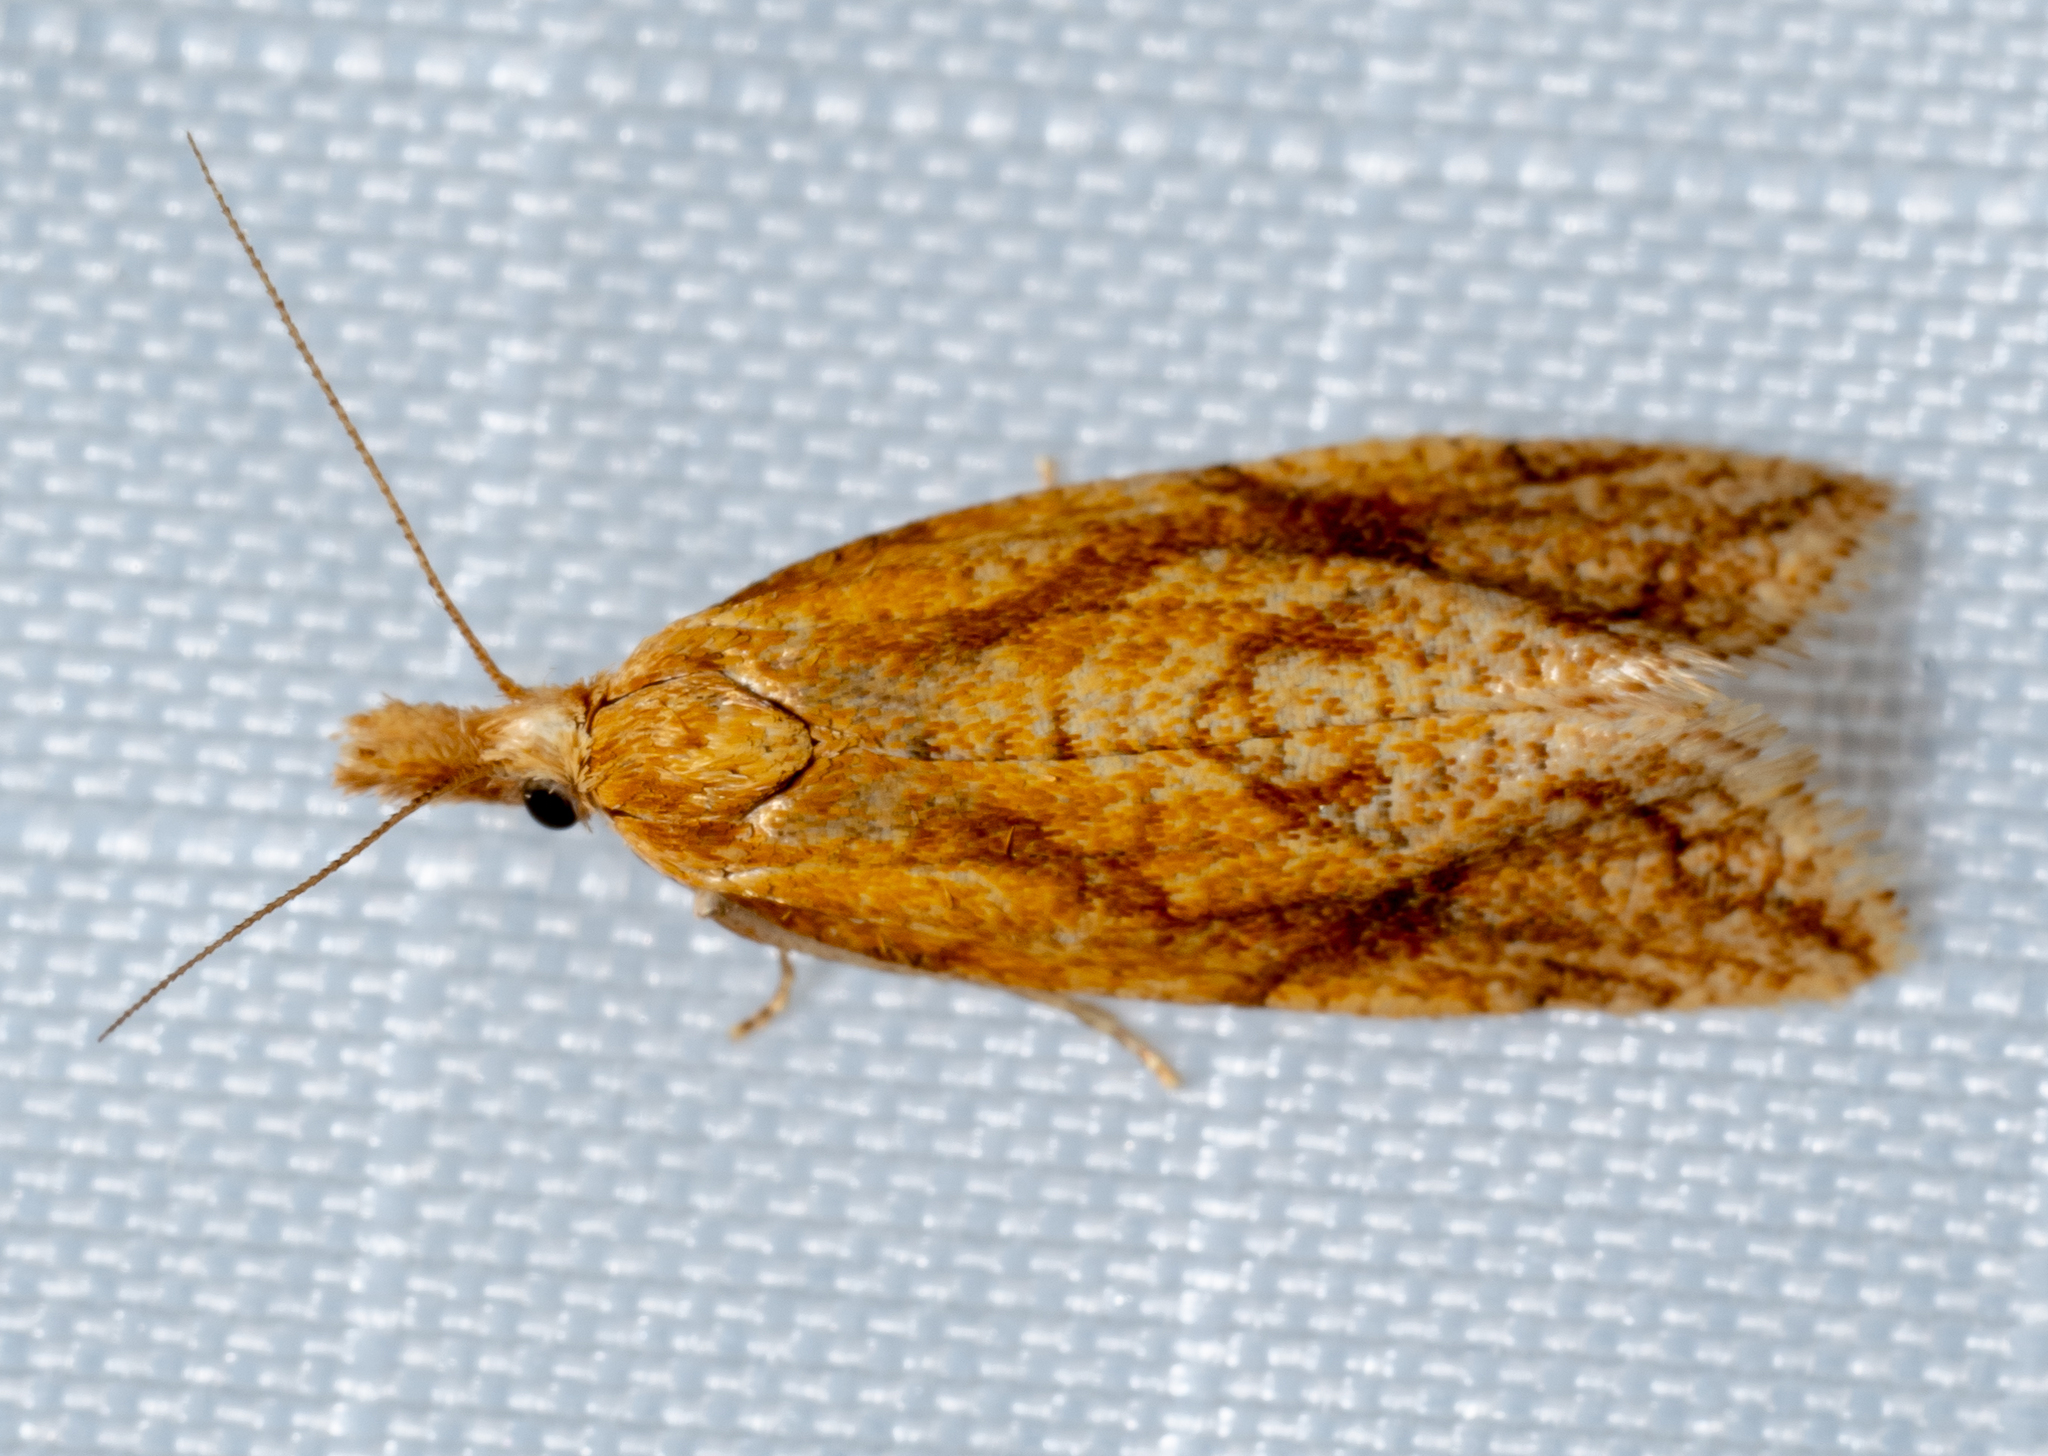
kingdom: Animalia
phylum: Arthropoda
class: Insecta
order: Lepidoptera
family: Tortricidae
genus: Aethes
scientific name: Aethes biscana
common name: Reddish aethes
